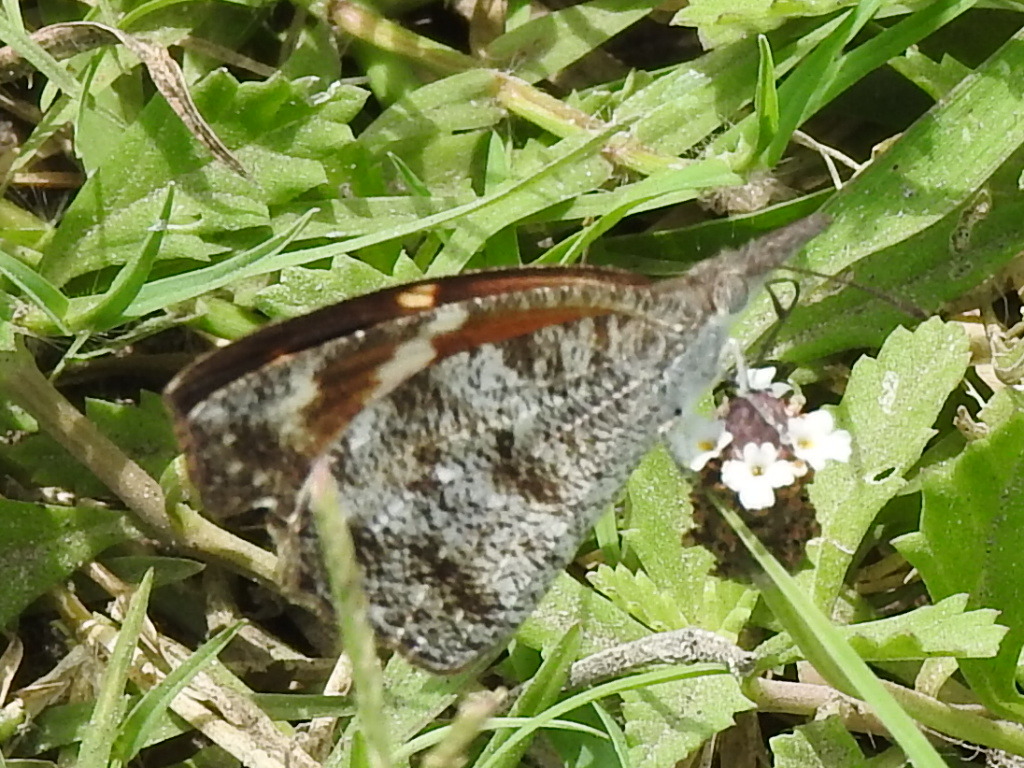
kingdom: Animalia
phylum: Arthropoda
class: Insecta
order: Lepidoptera
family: Nymphalidae
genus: Libytheana
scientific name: Libytheana carinenta
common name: American snout
